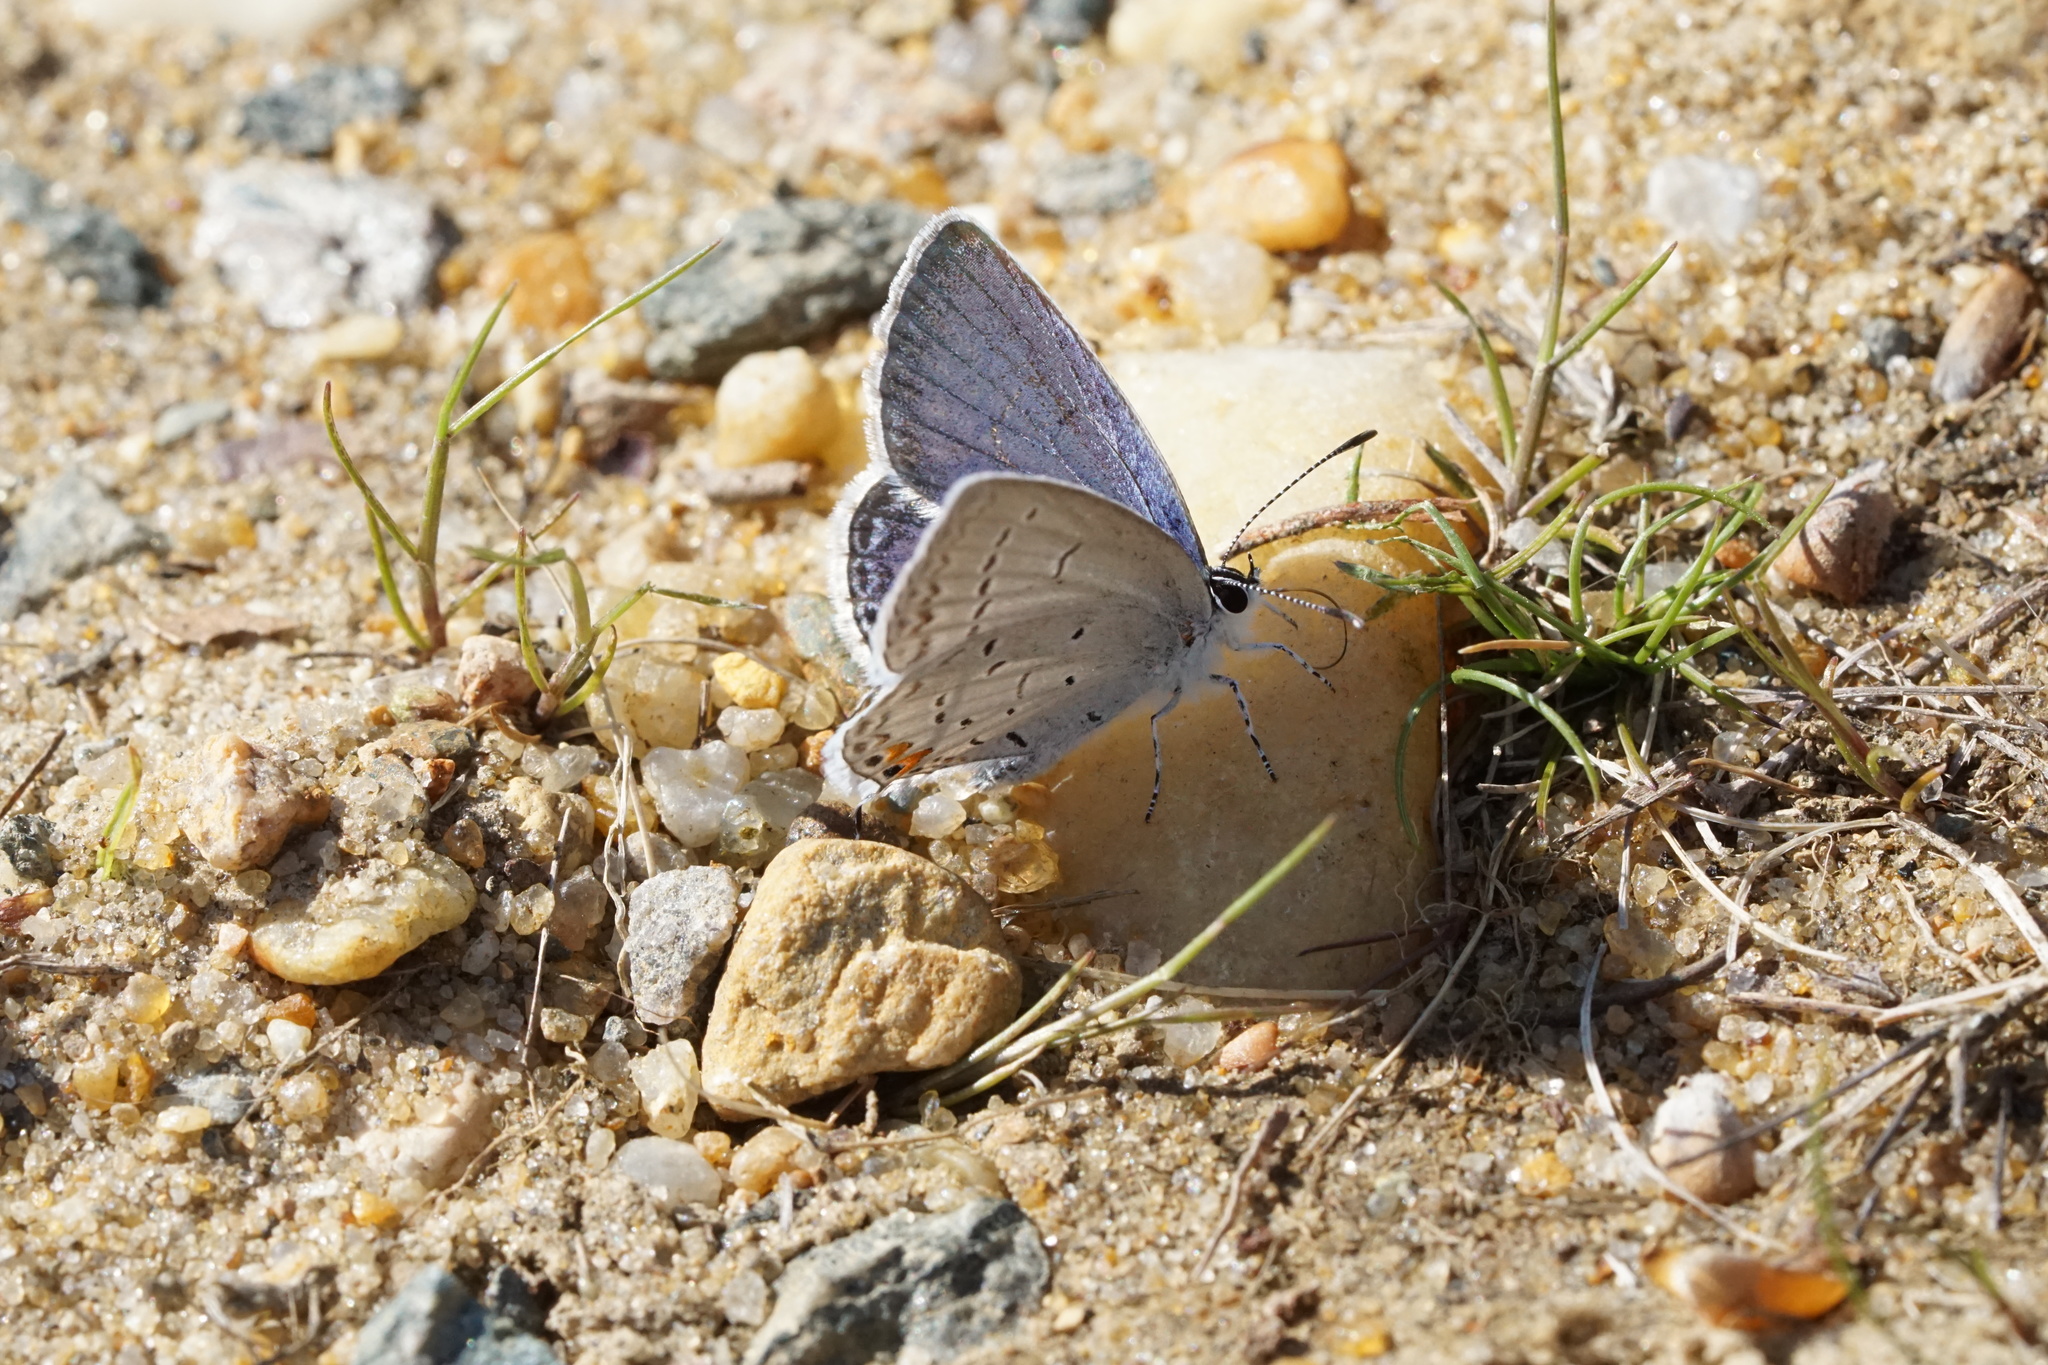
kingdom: Animalia
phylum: Arthropoda
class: Insecta
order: Lepidoptera
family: Lycaenidae
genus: Elkalyce
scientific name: Elkalyce comyntas
